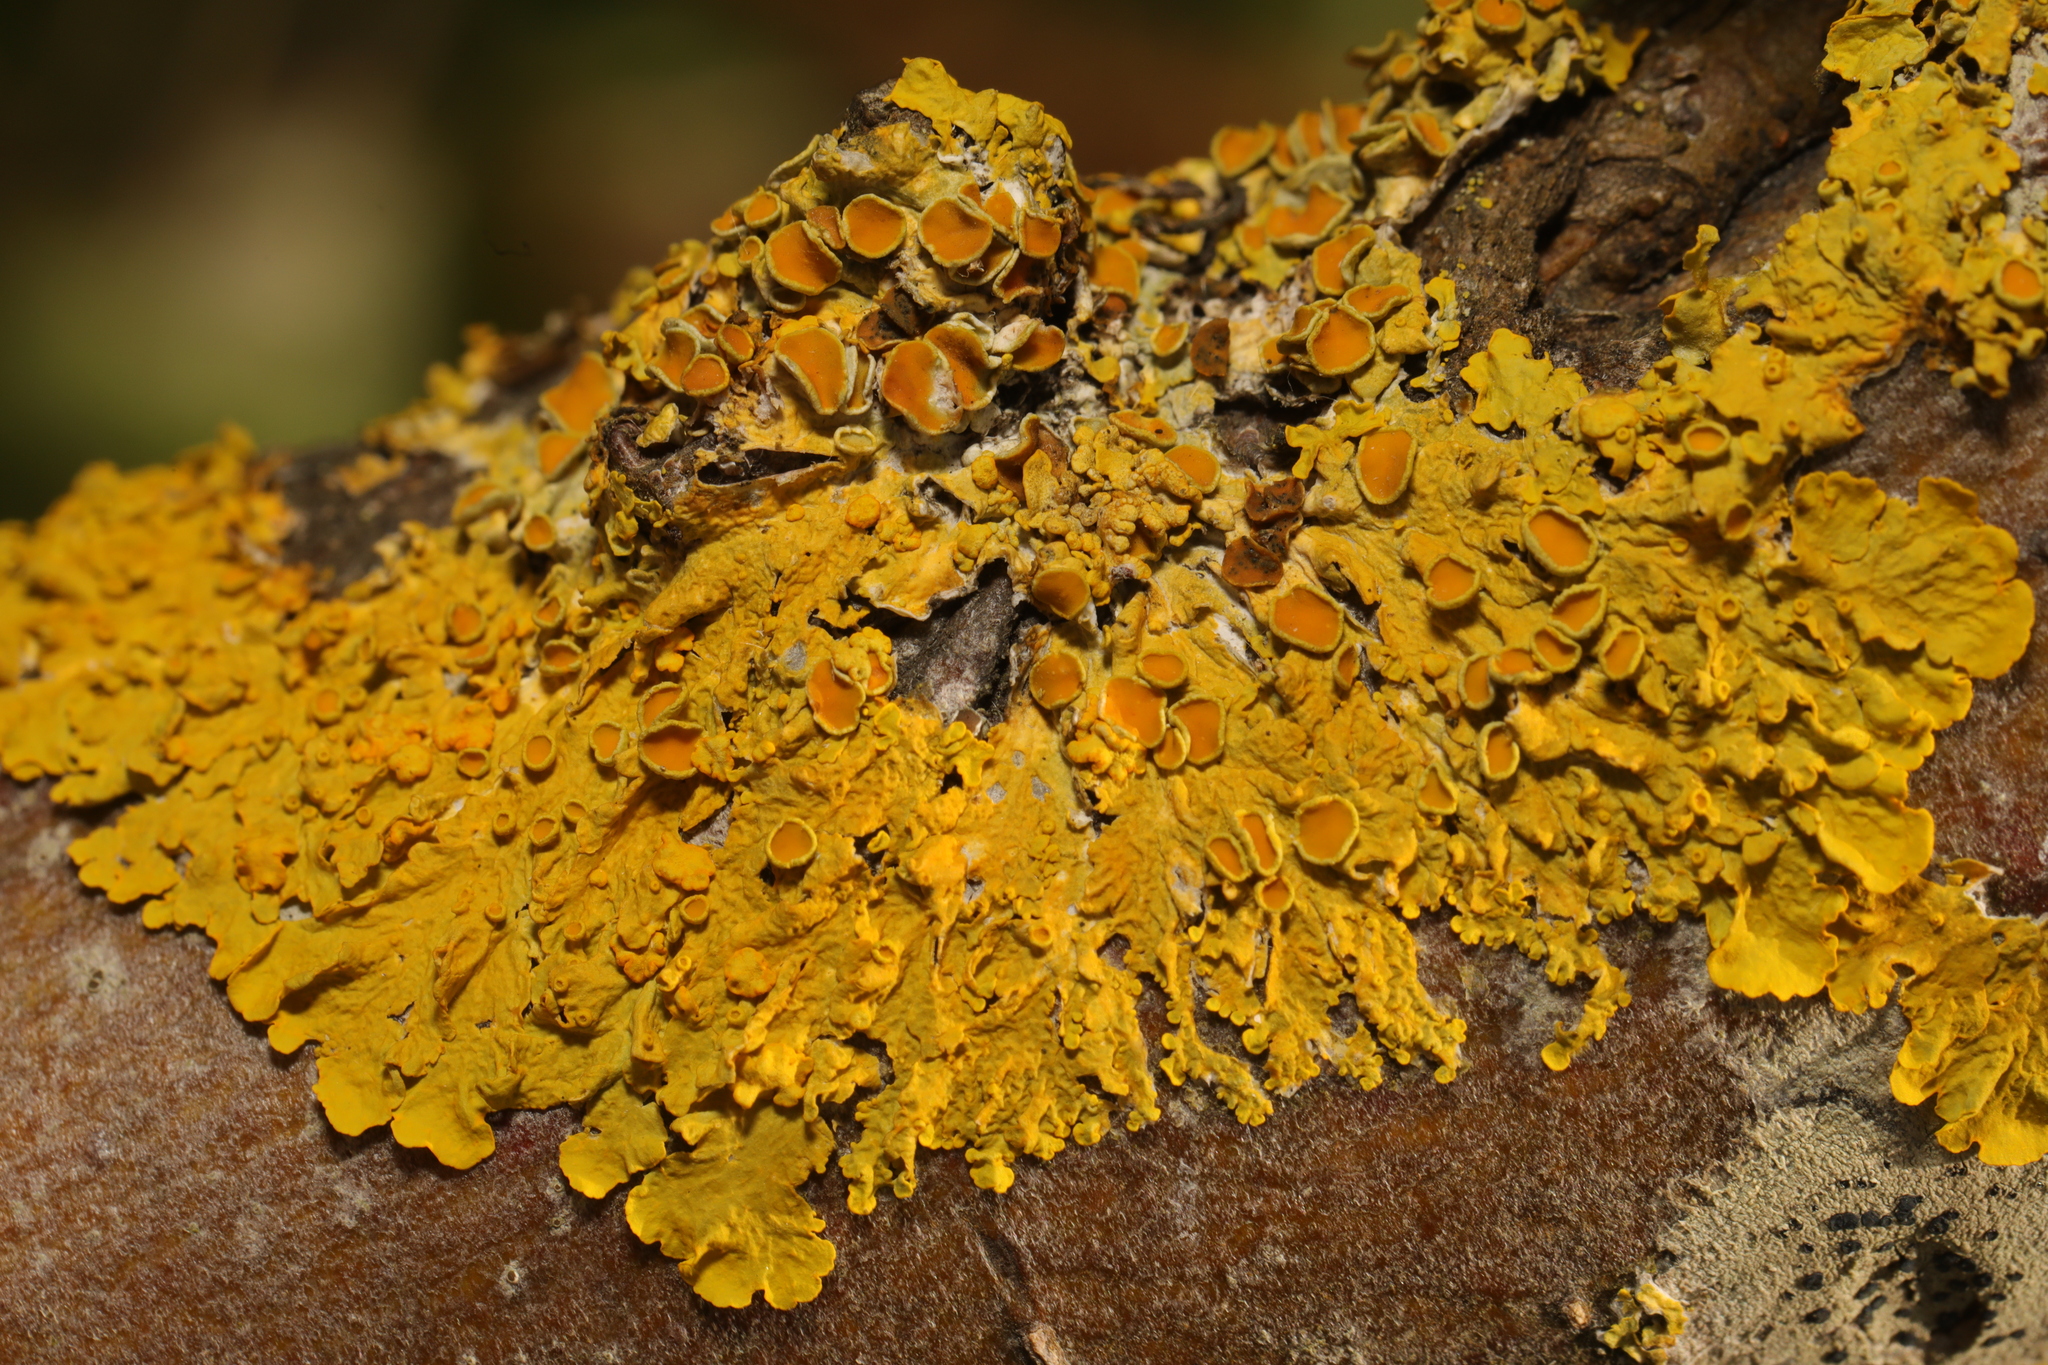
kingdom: Fungi
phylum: Ascomycota
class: Lecanoromycetes
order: Teloschistales
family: Teloschistaceae
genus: Xanthoria
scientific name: Xanthoria parietina
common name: Common orange lichen
